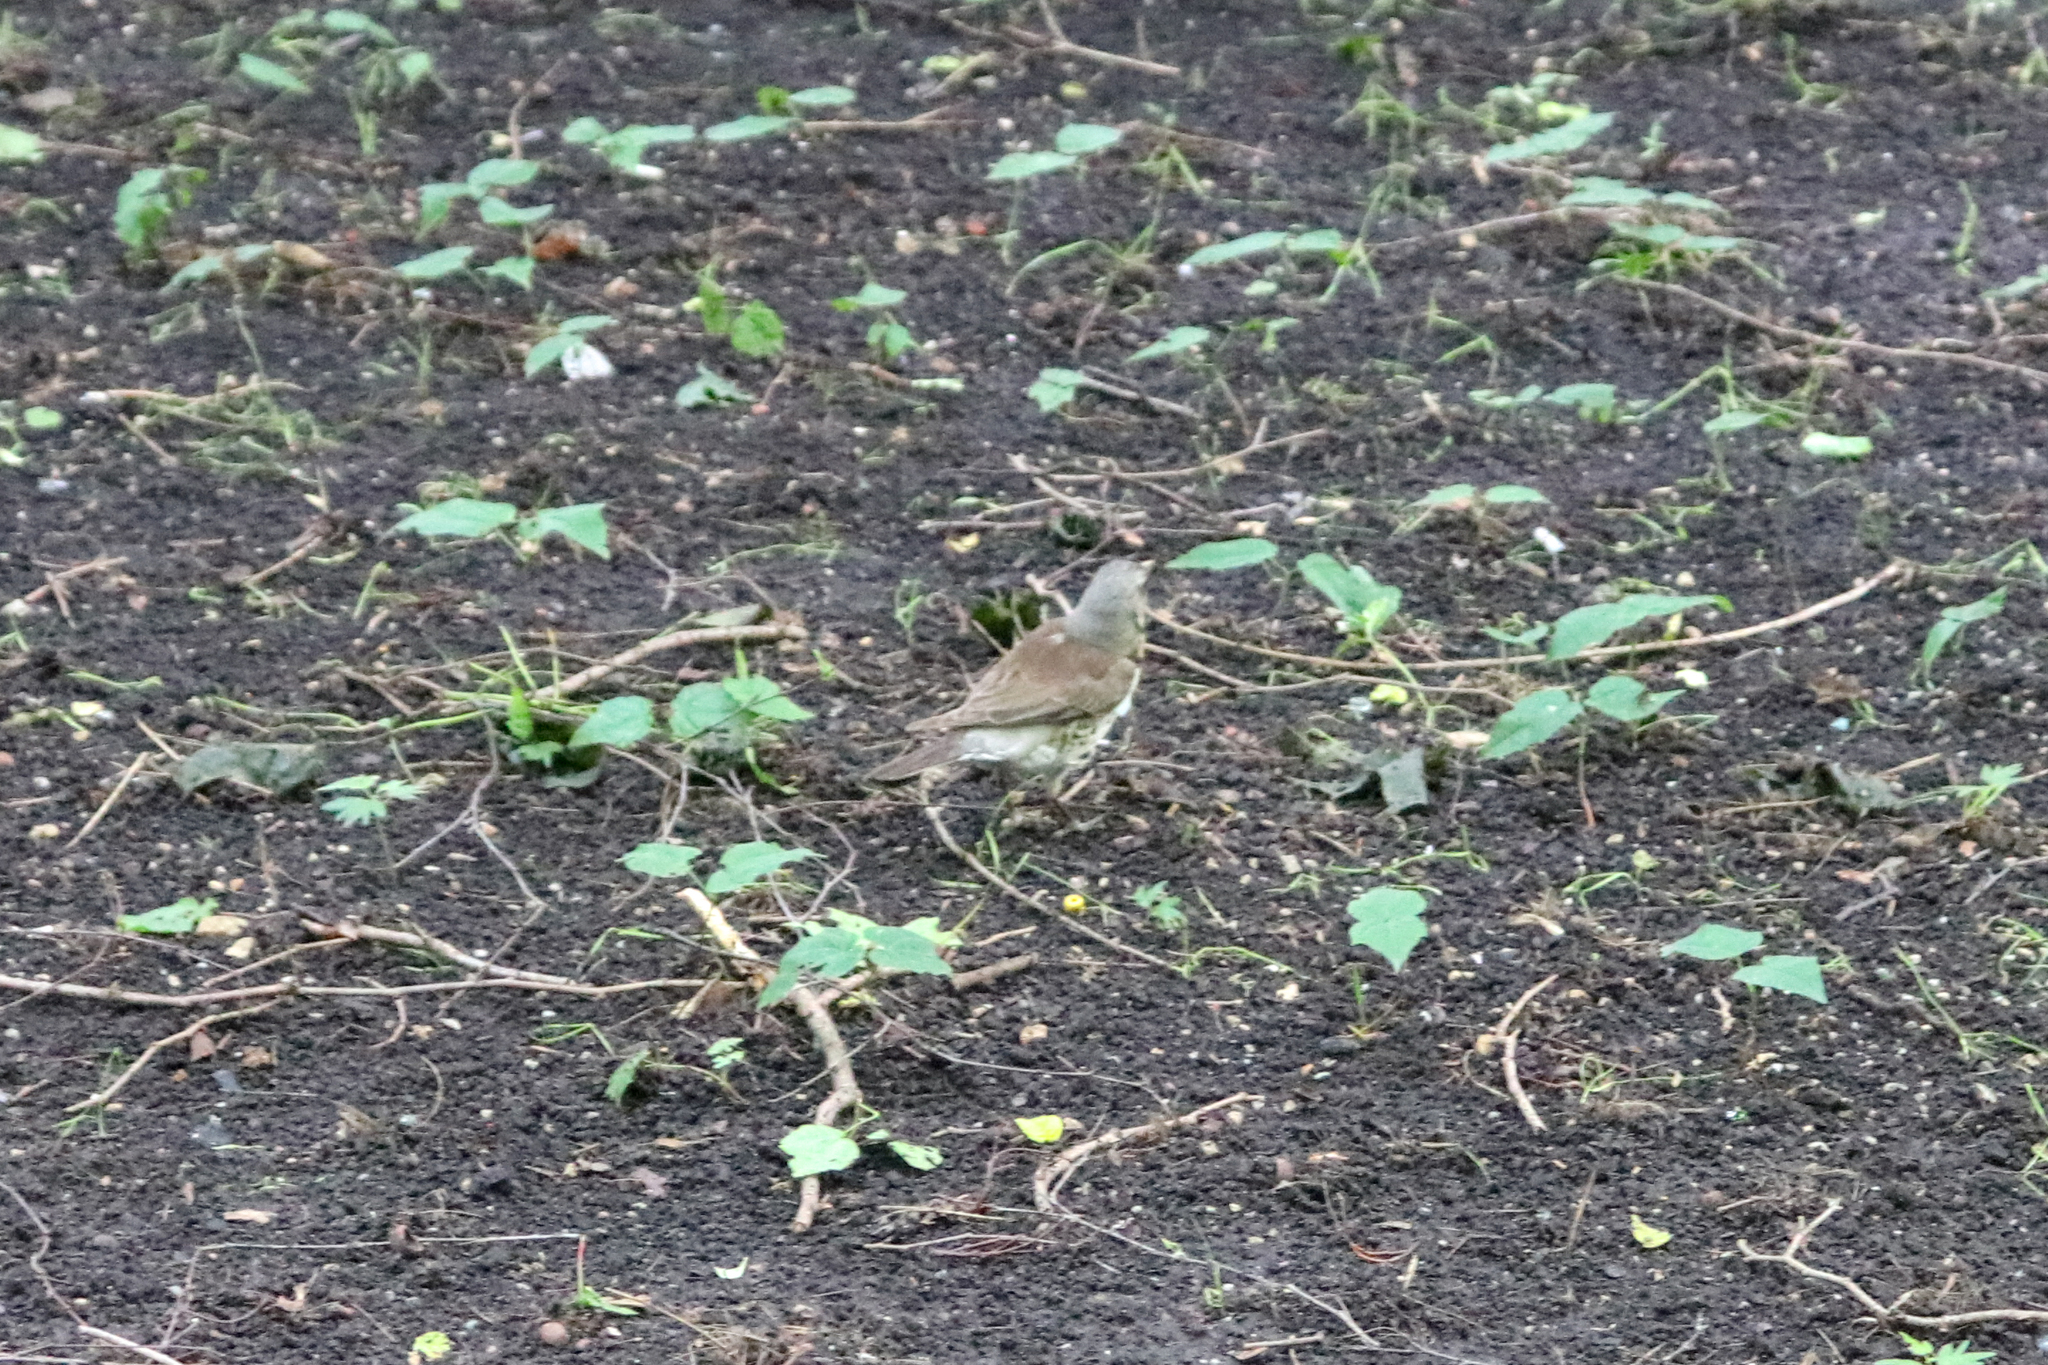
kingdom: Animalia
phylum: Chordata
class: Aves
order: Passeriformes
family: Turdidae
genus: Turdus
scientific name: Turdus pilaris
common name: Fieldfare
